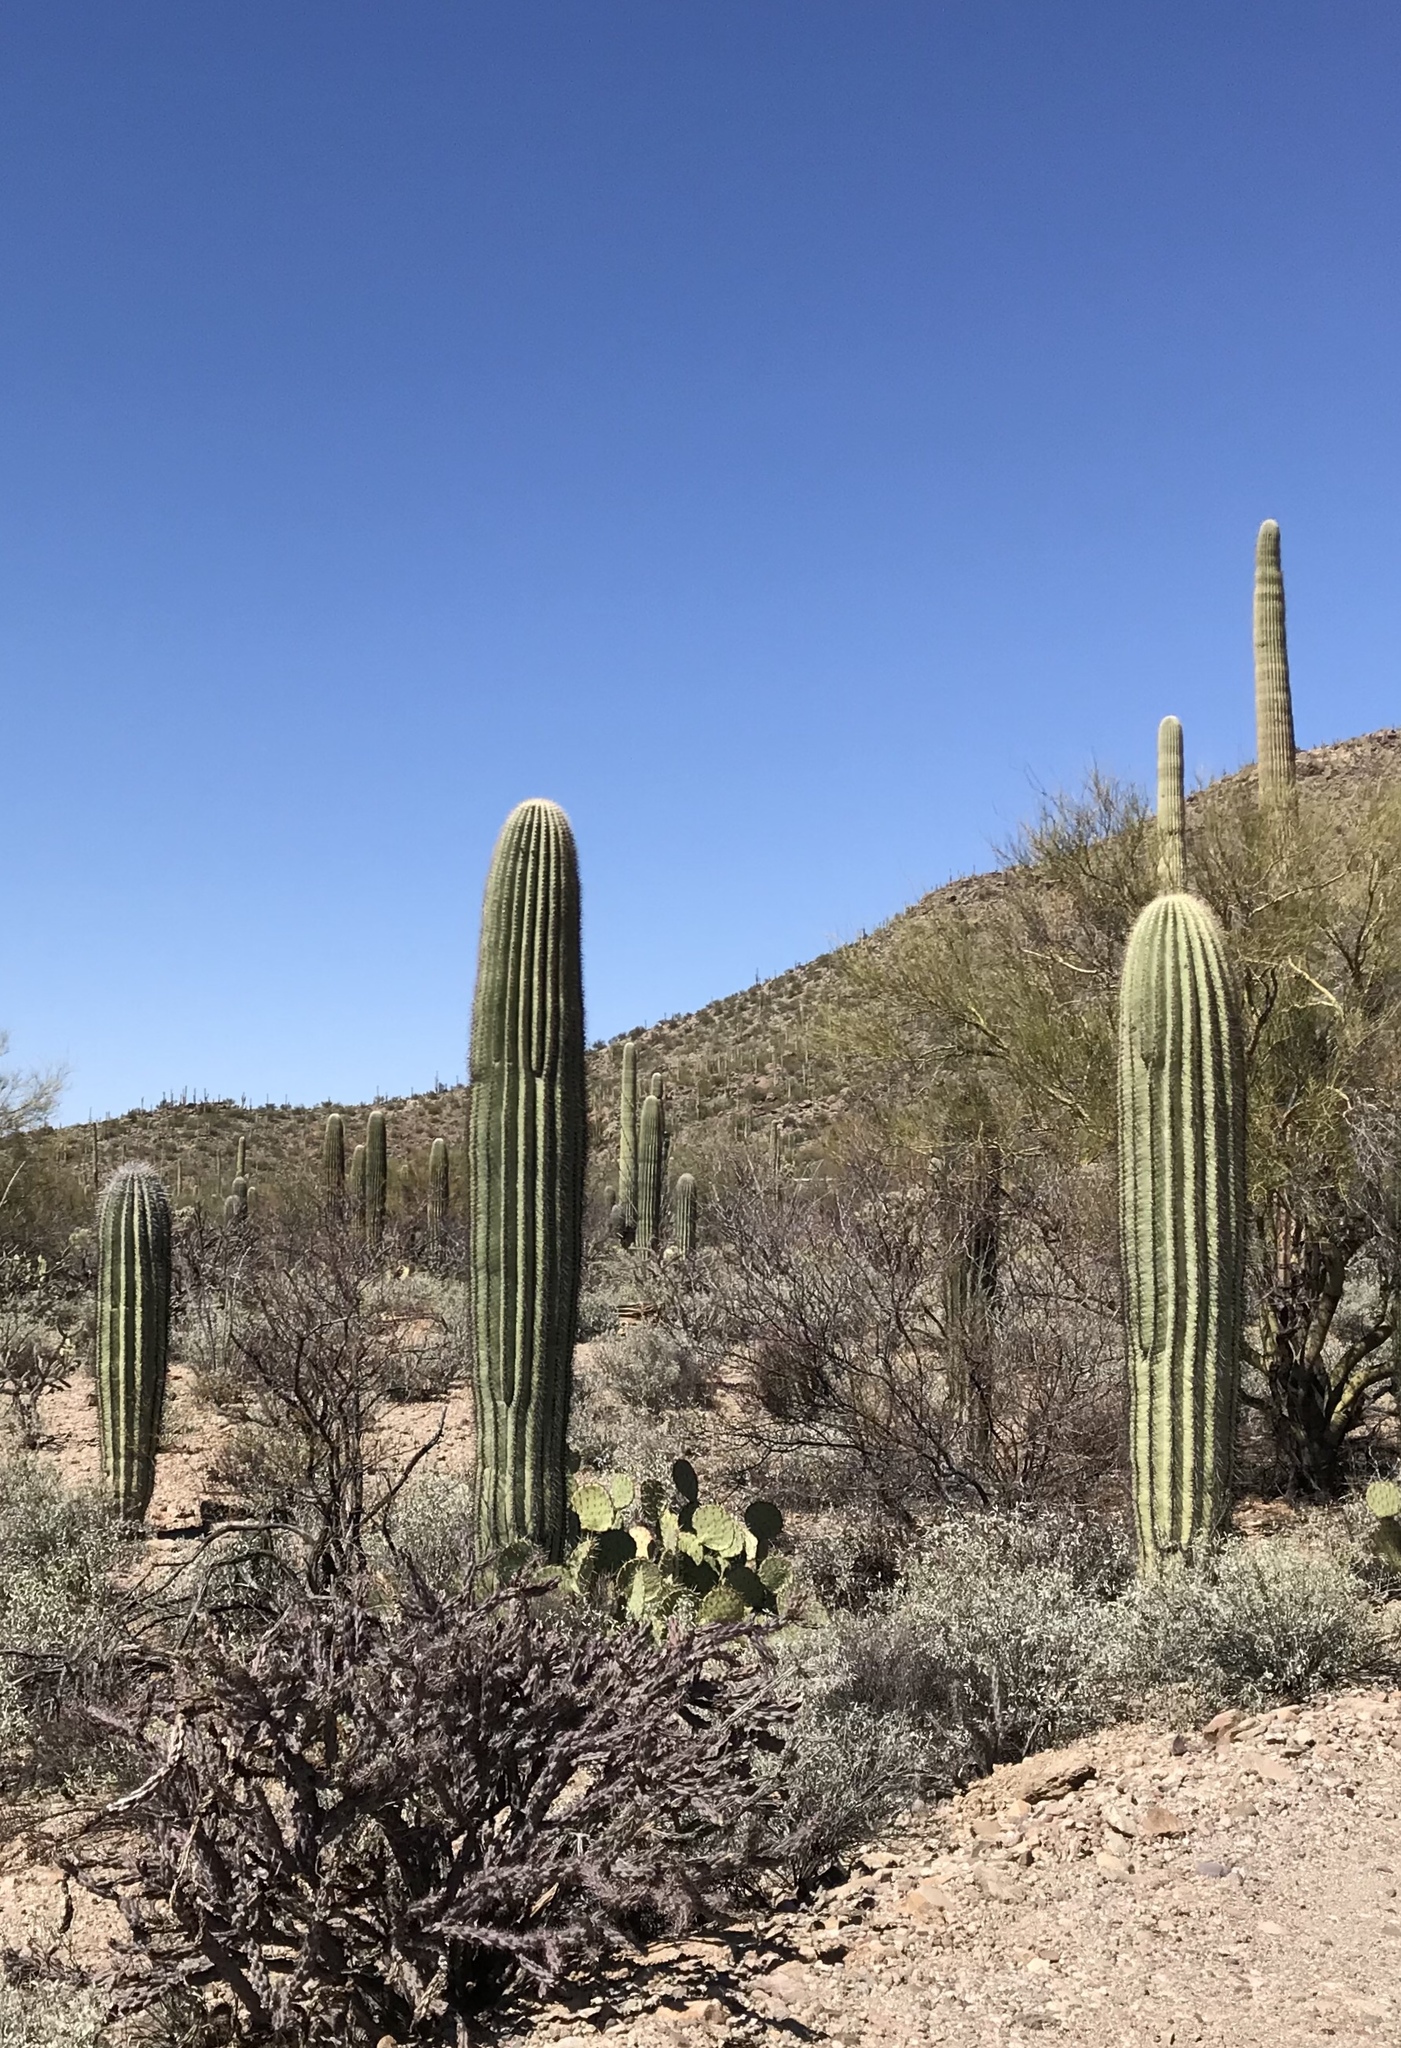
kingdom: Plantae
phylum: Tracheophyta
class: Magnoliopsida
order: Caryophyllales
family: Cactaceae
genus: Carnegiea
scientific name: Carnegiea gigantea
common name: Saguaro
